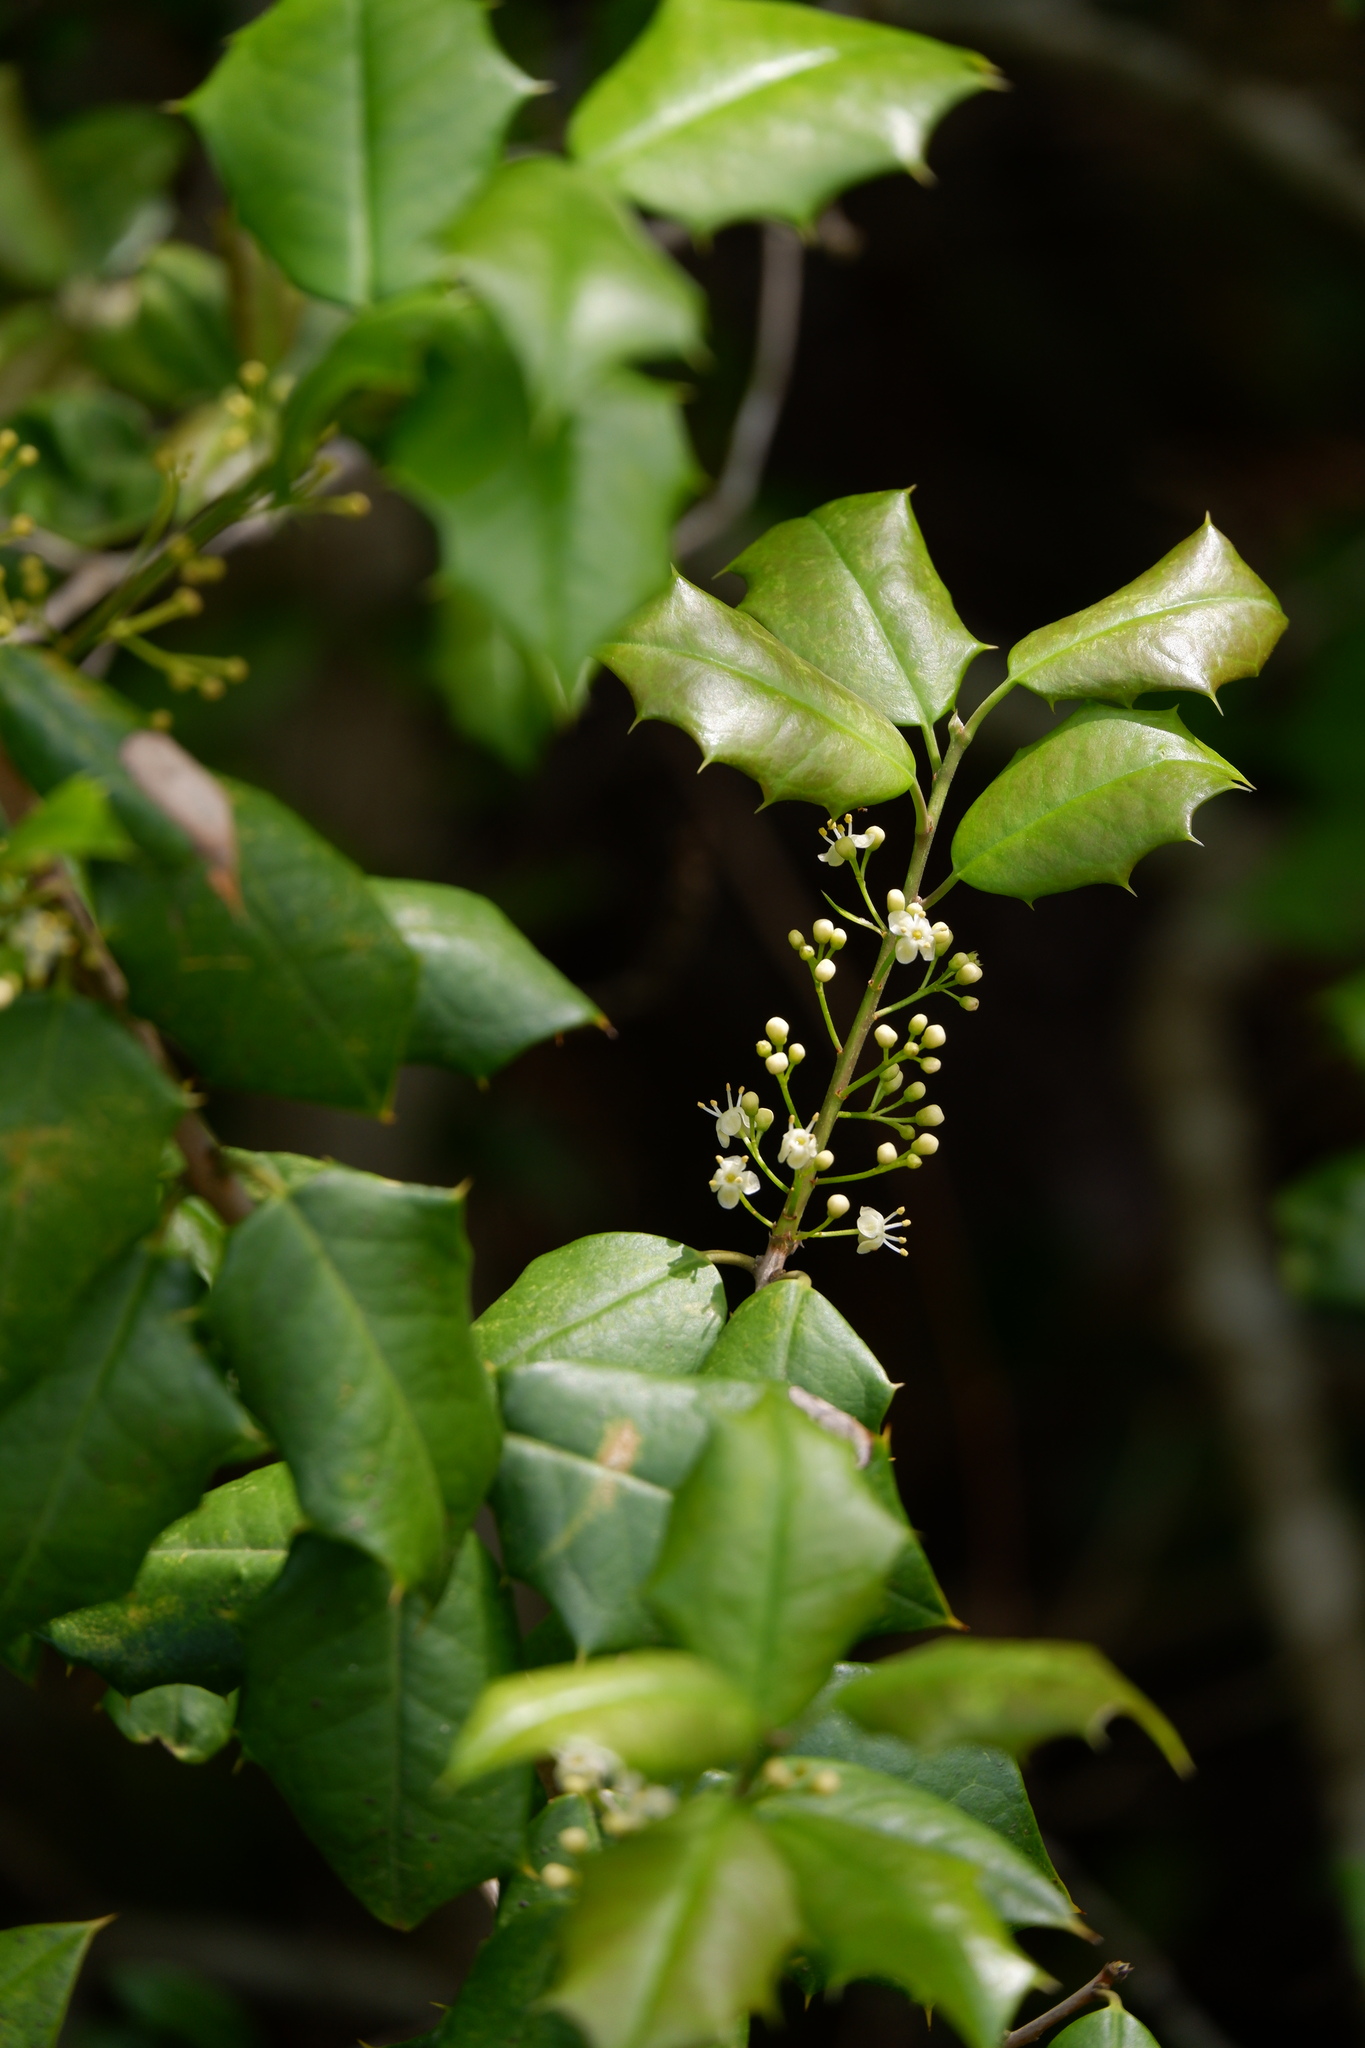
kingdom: Plantae
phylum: Tracheophyta
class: Magnoliopsida
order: Aquifoliales
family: Aquifoliaceae
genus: Ilex
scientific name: Ilex opaca
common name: American holly
